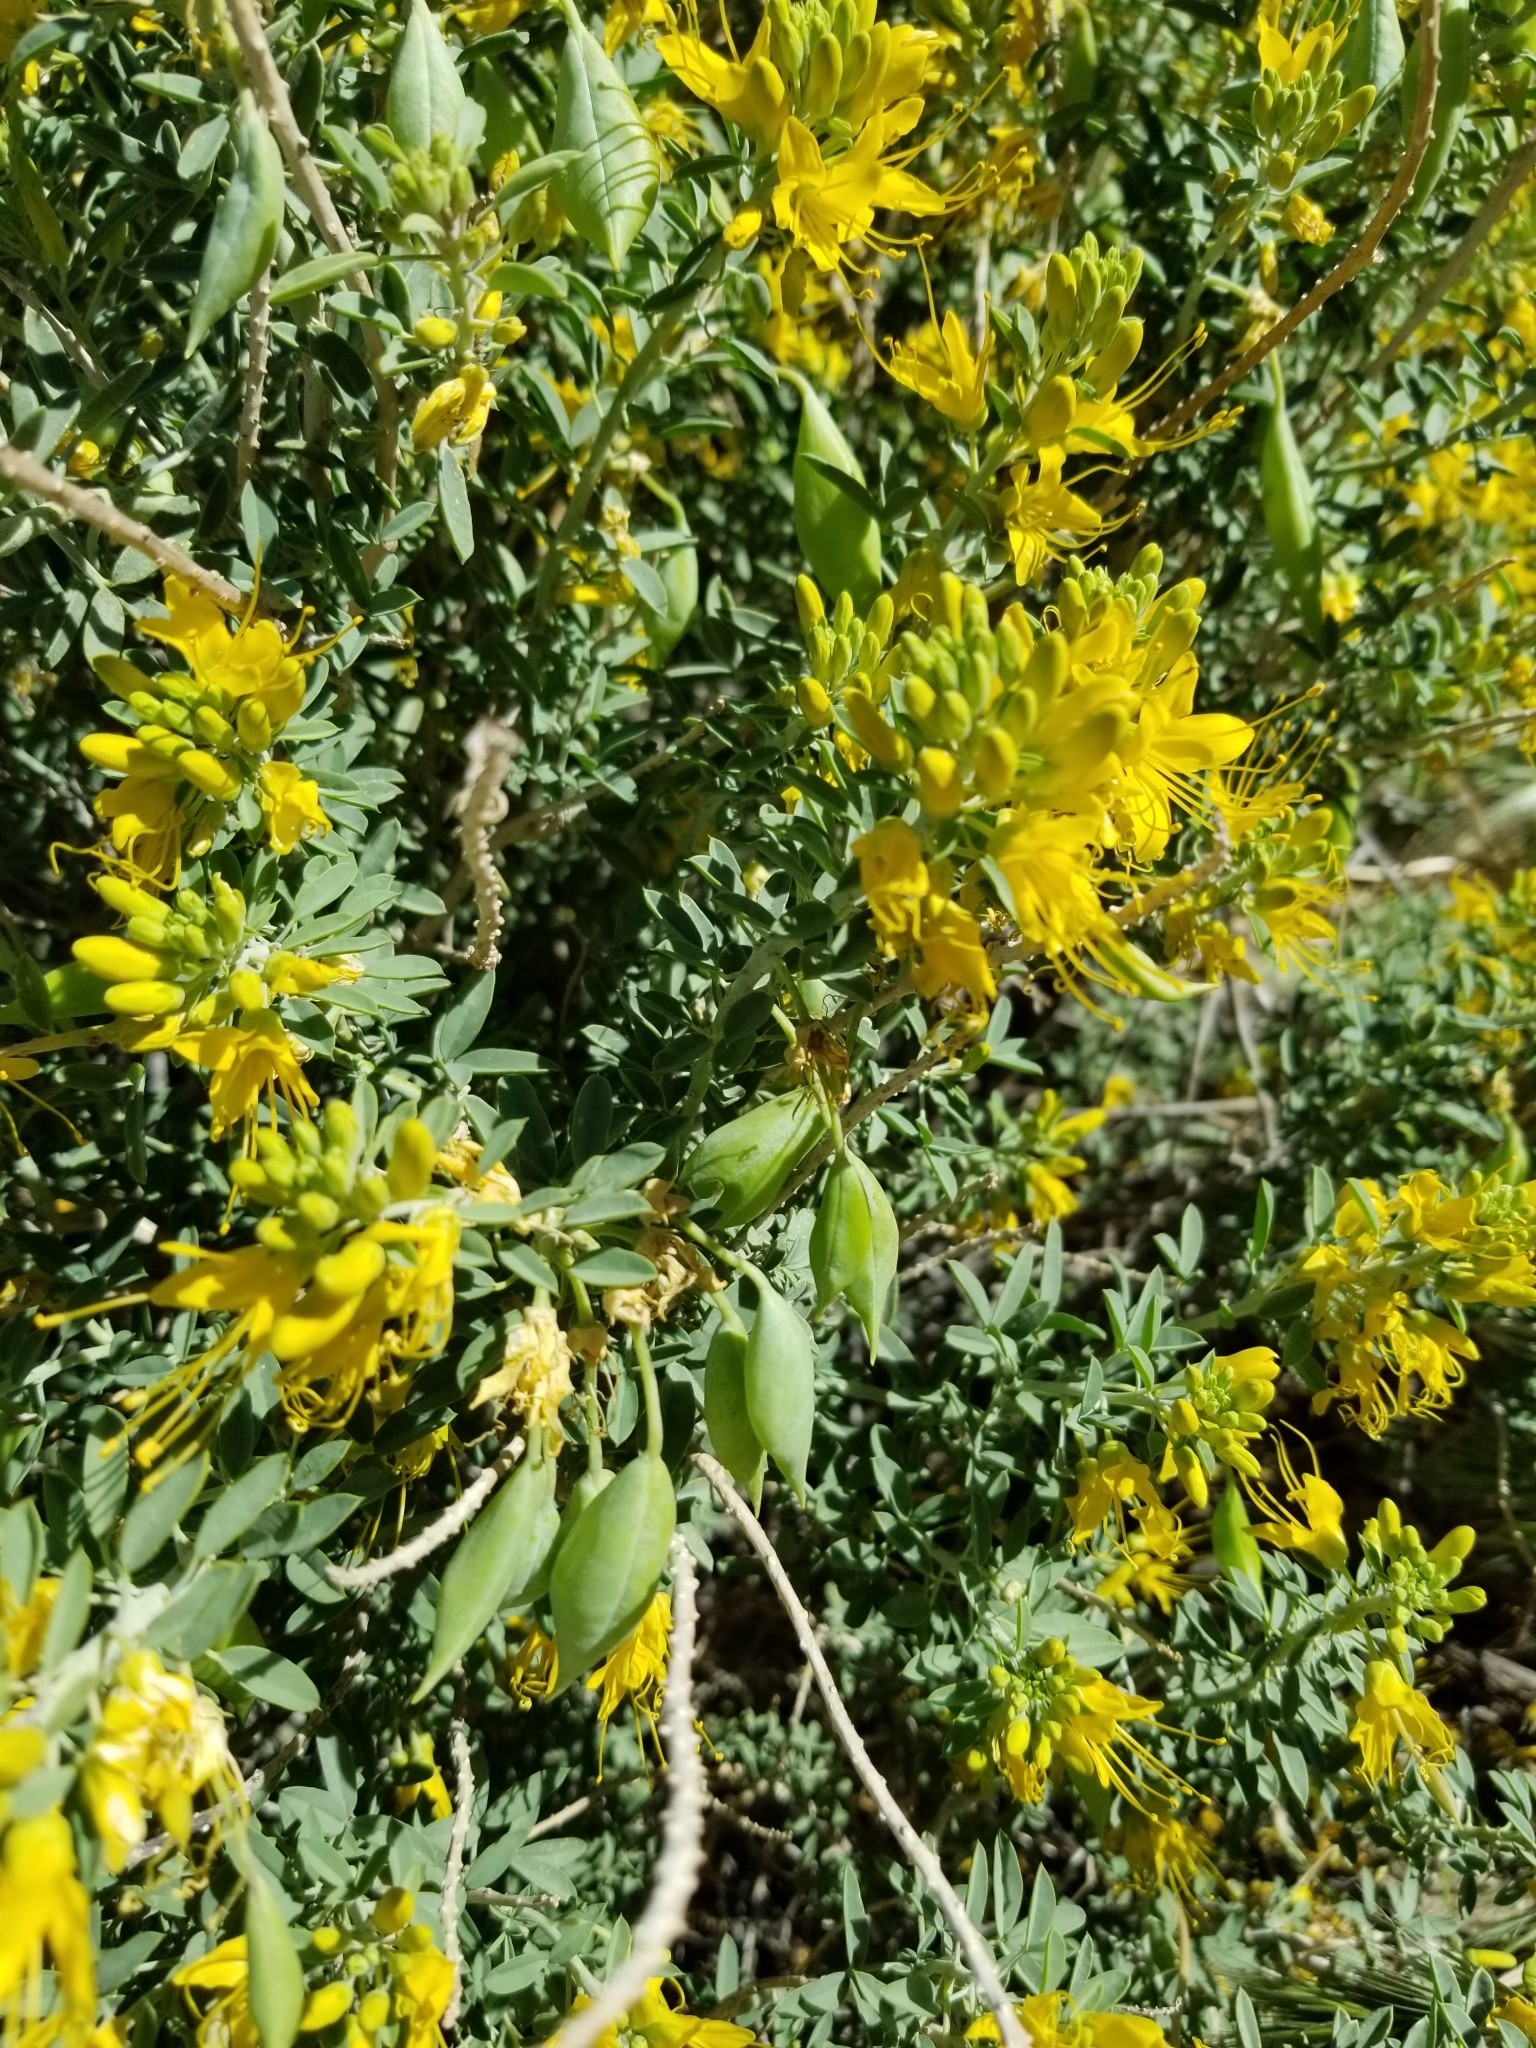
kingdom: Plantae
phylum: Tracheophyta
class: Magnoliopsida
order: Brassicales
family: Cleomaceae
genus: Cleomella
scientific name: Cleomella arborea
